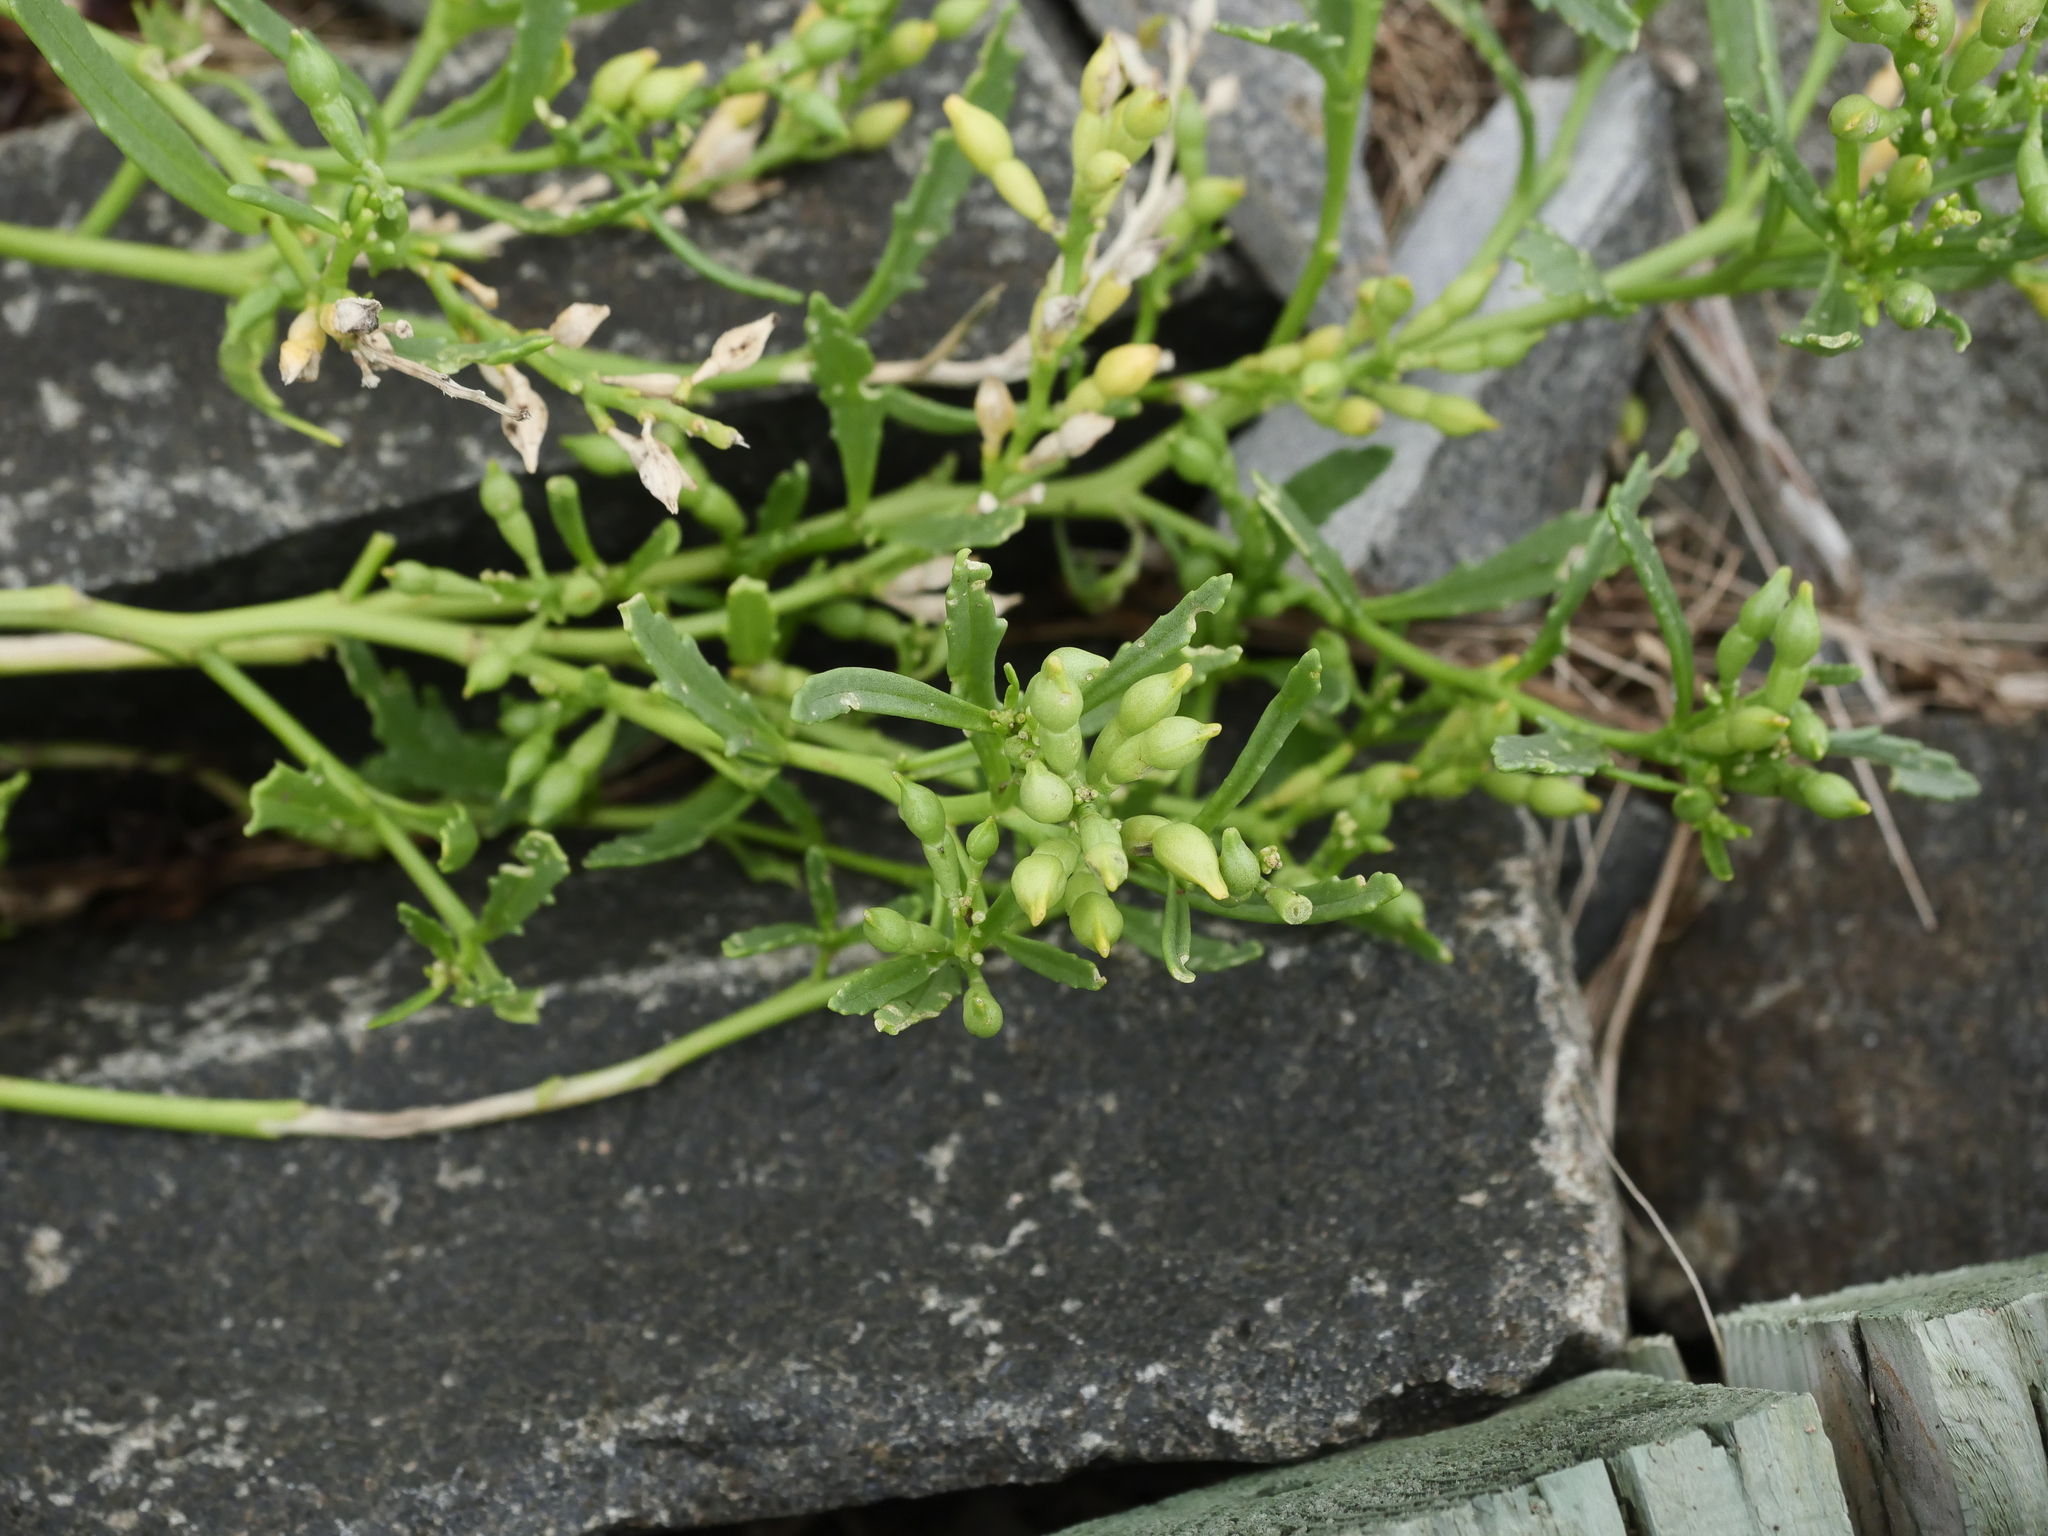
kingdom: Plantae
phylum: Tracheophyta
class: Magnoliopsida
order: Brassicales
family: Brassicaceae
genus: Cakile
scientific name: Cakile edentula
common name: American sea rocket
